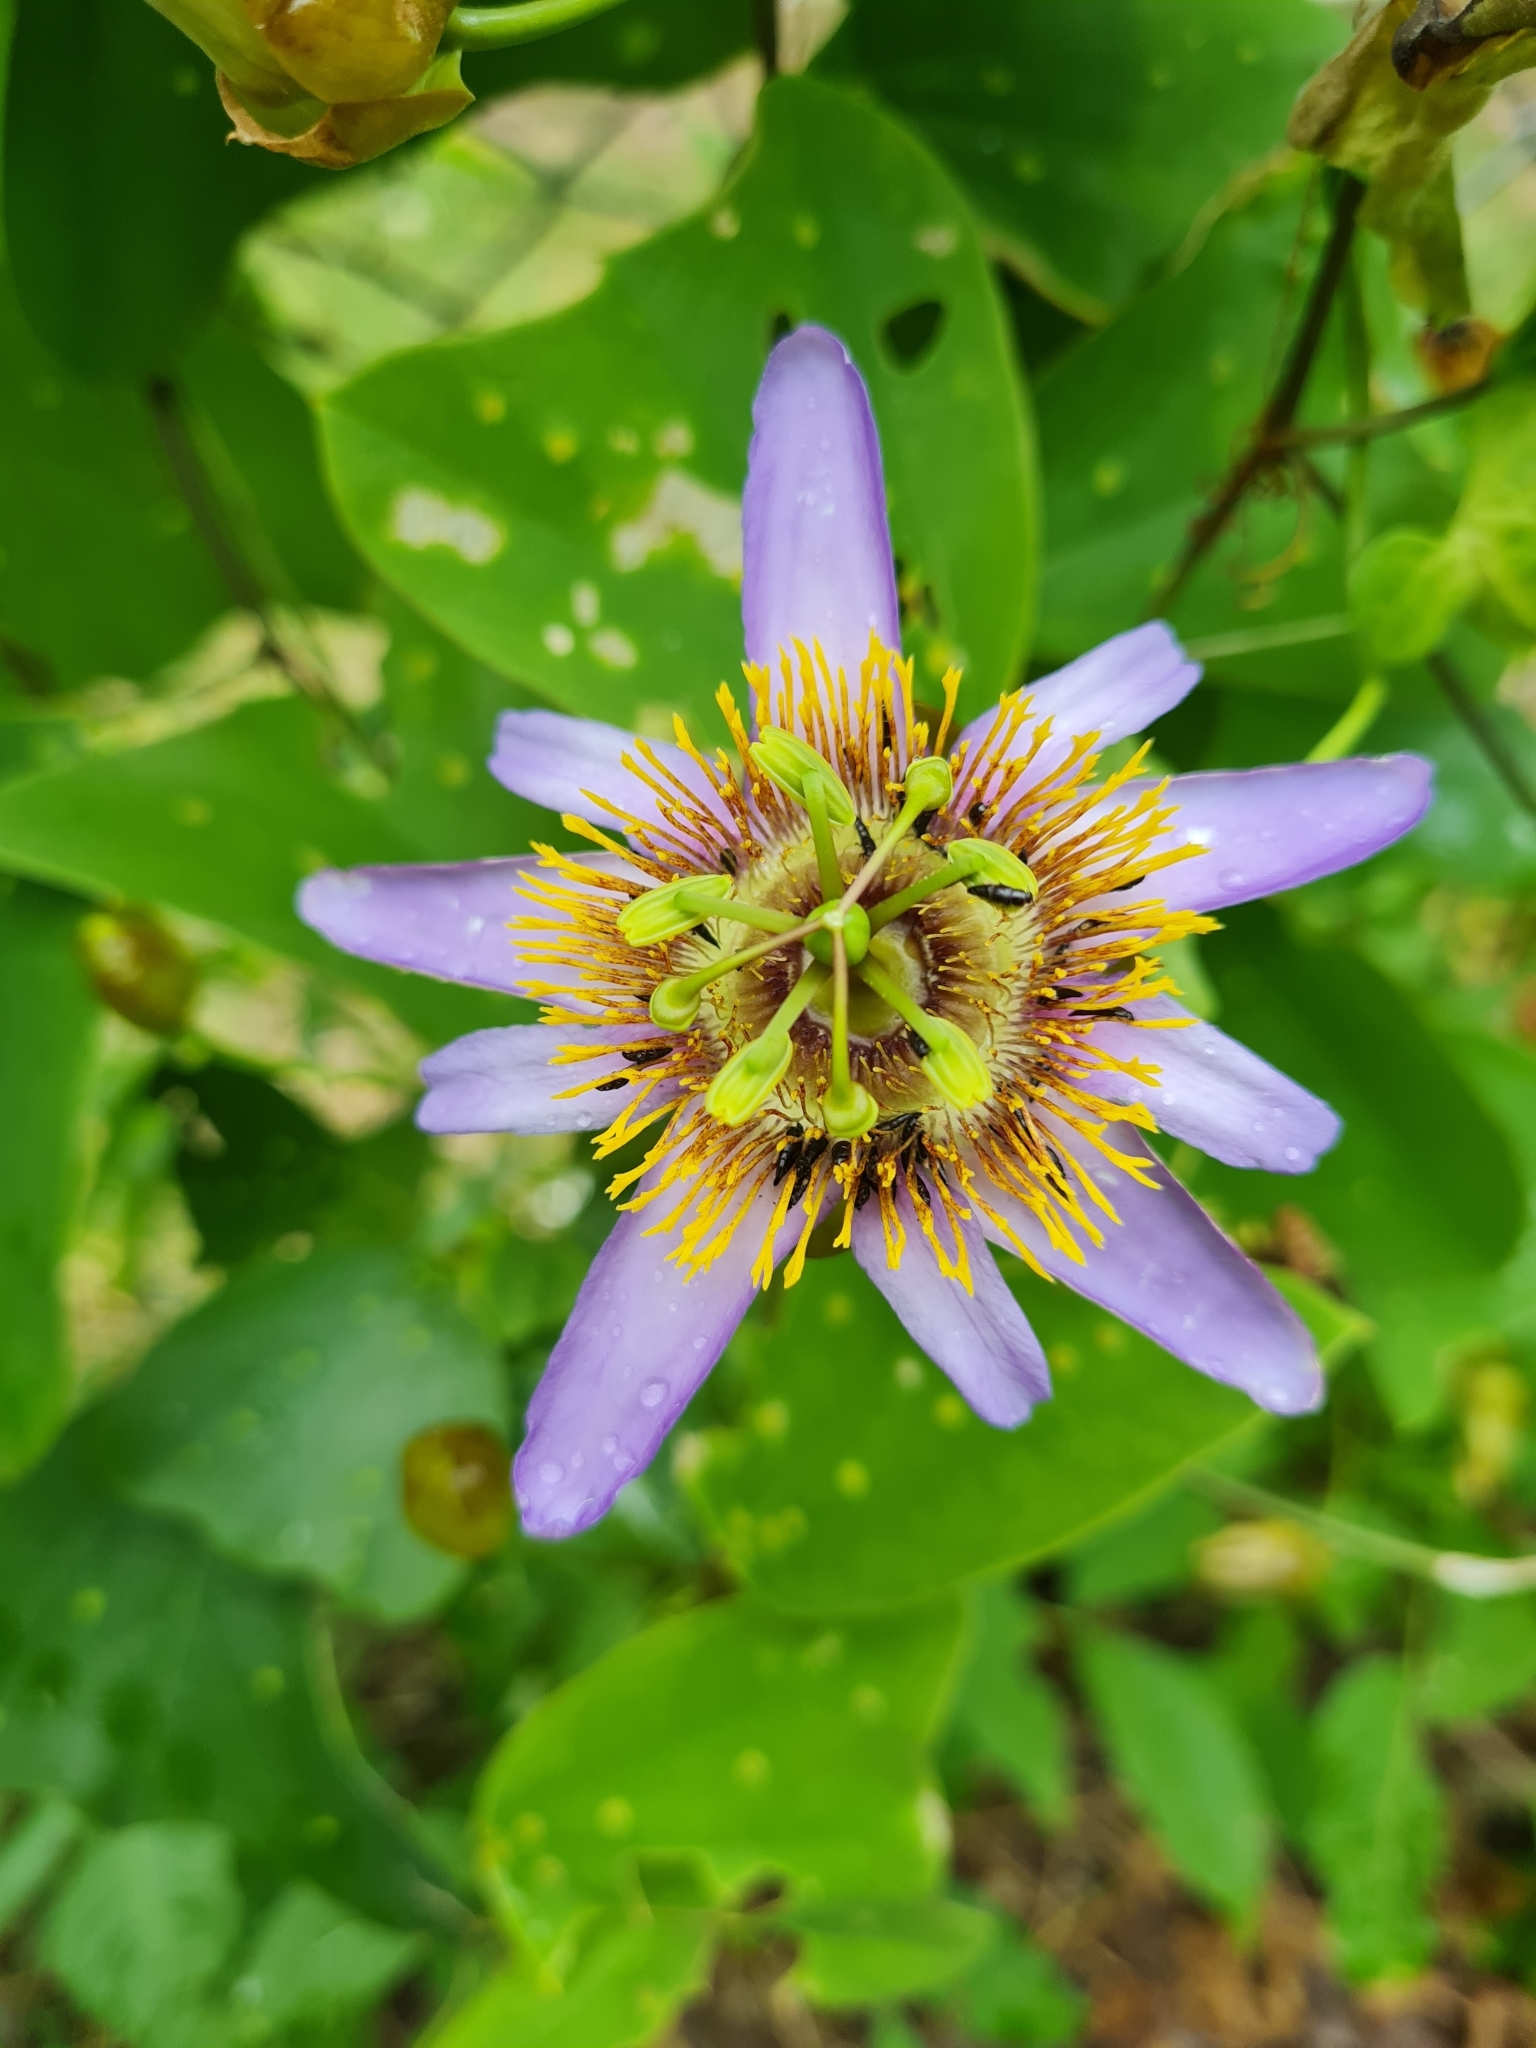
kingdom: Plantae
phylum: Tracheophyta
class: Magnoliopsida
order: Malpighiales
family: Passifloraceae
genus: Passiflora
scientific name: Passiflora bicornis
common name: Wingleaf passionflower
